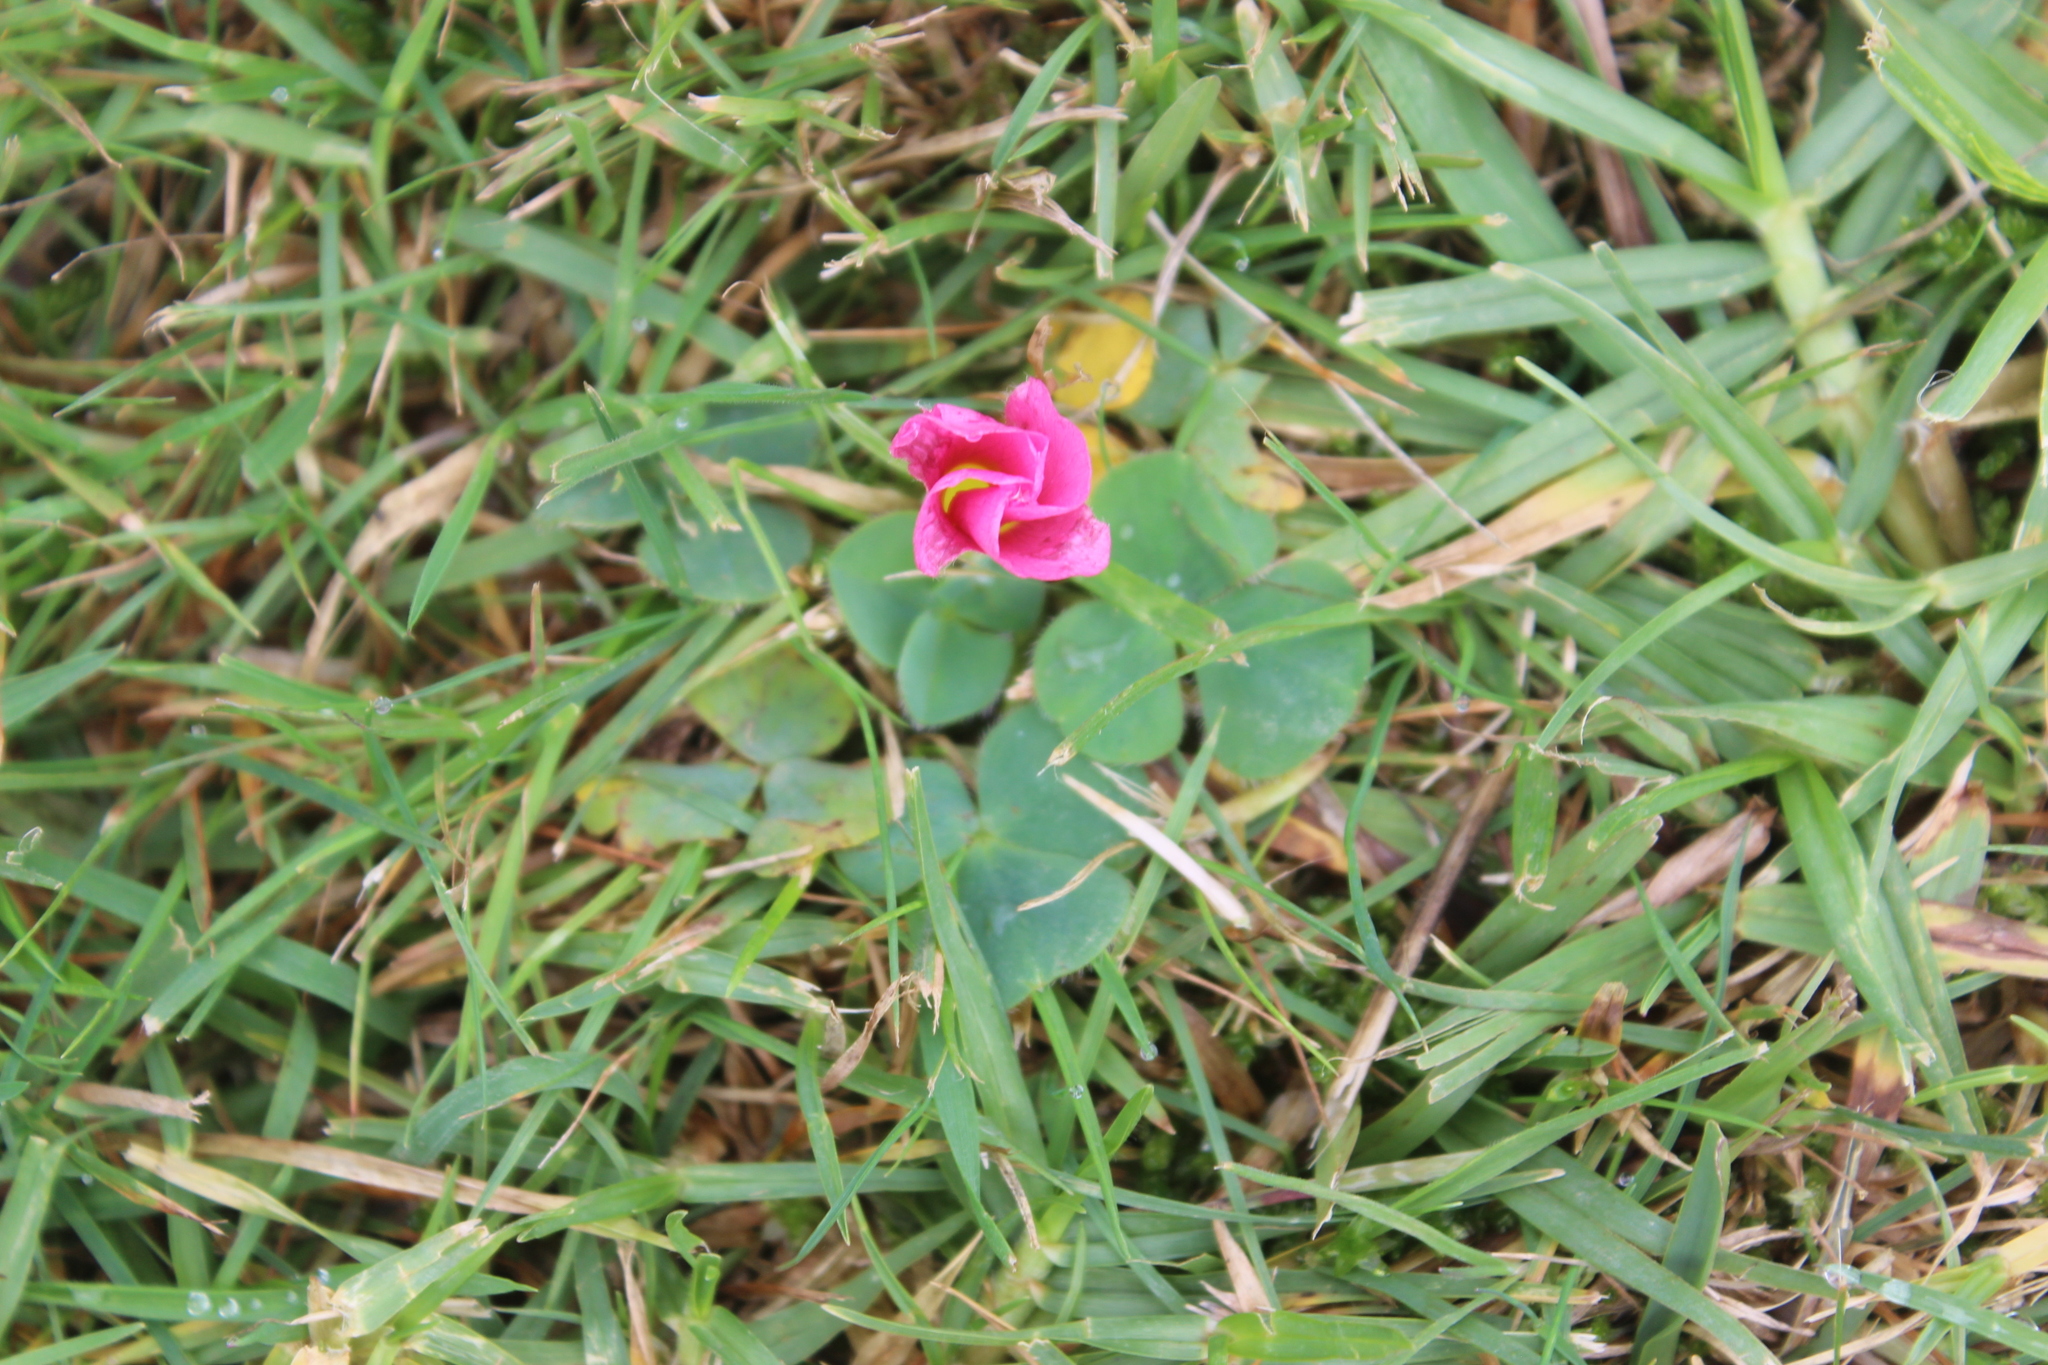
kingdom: Plantae
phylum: Tracheophyta
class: Magnoliopsida
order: Oxalidales
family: Oxalidaceae
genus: Oxalis
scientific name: Oxalis purpurea
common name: Purple woodsorrel
